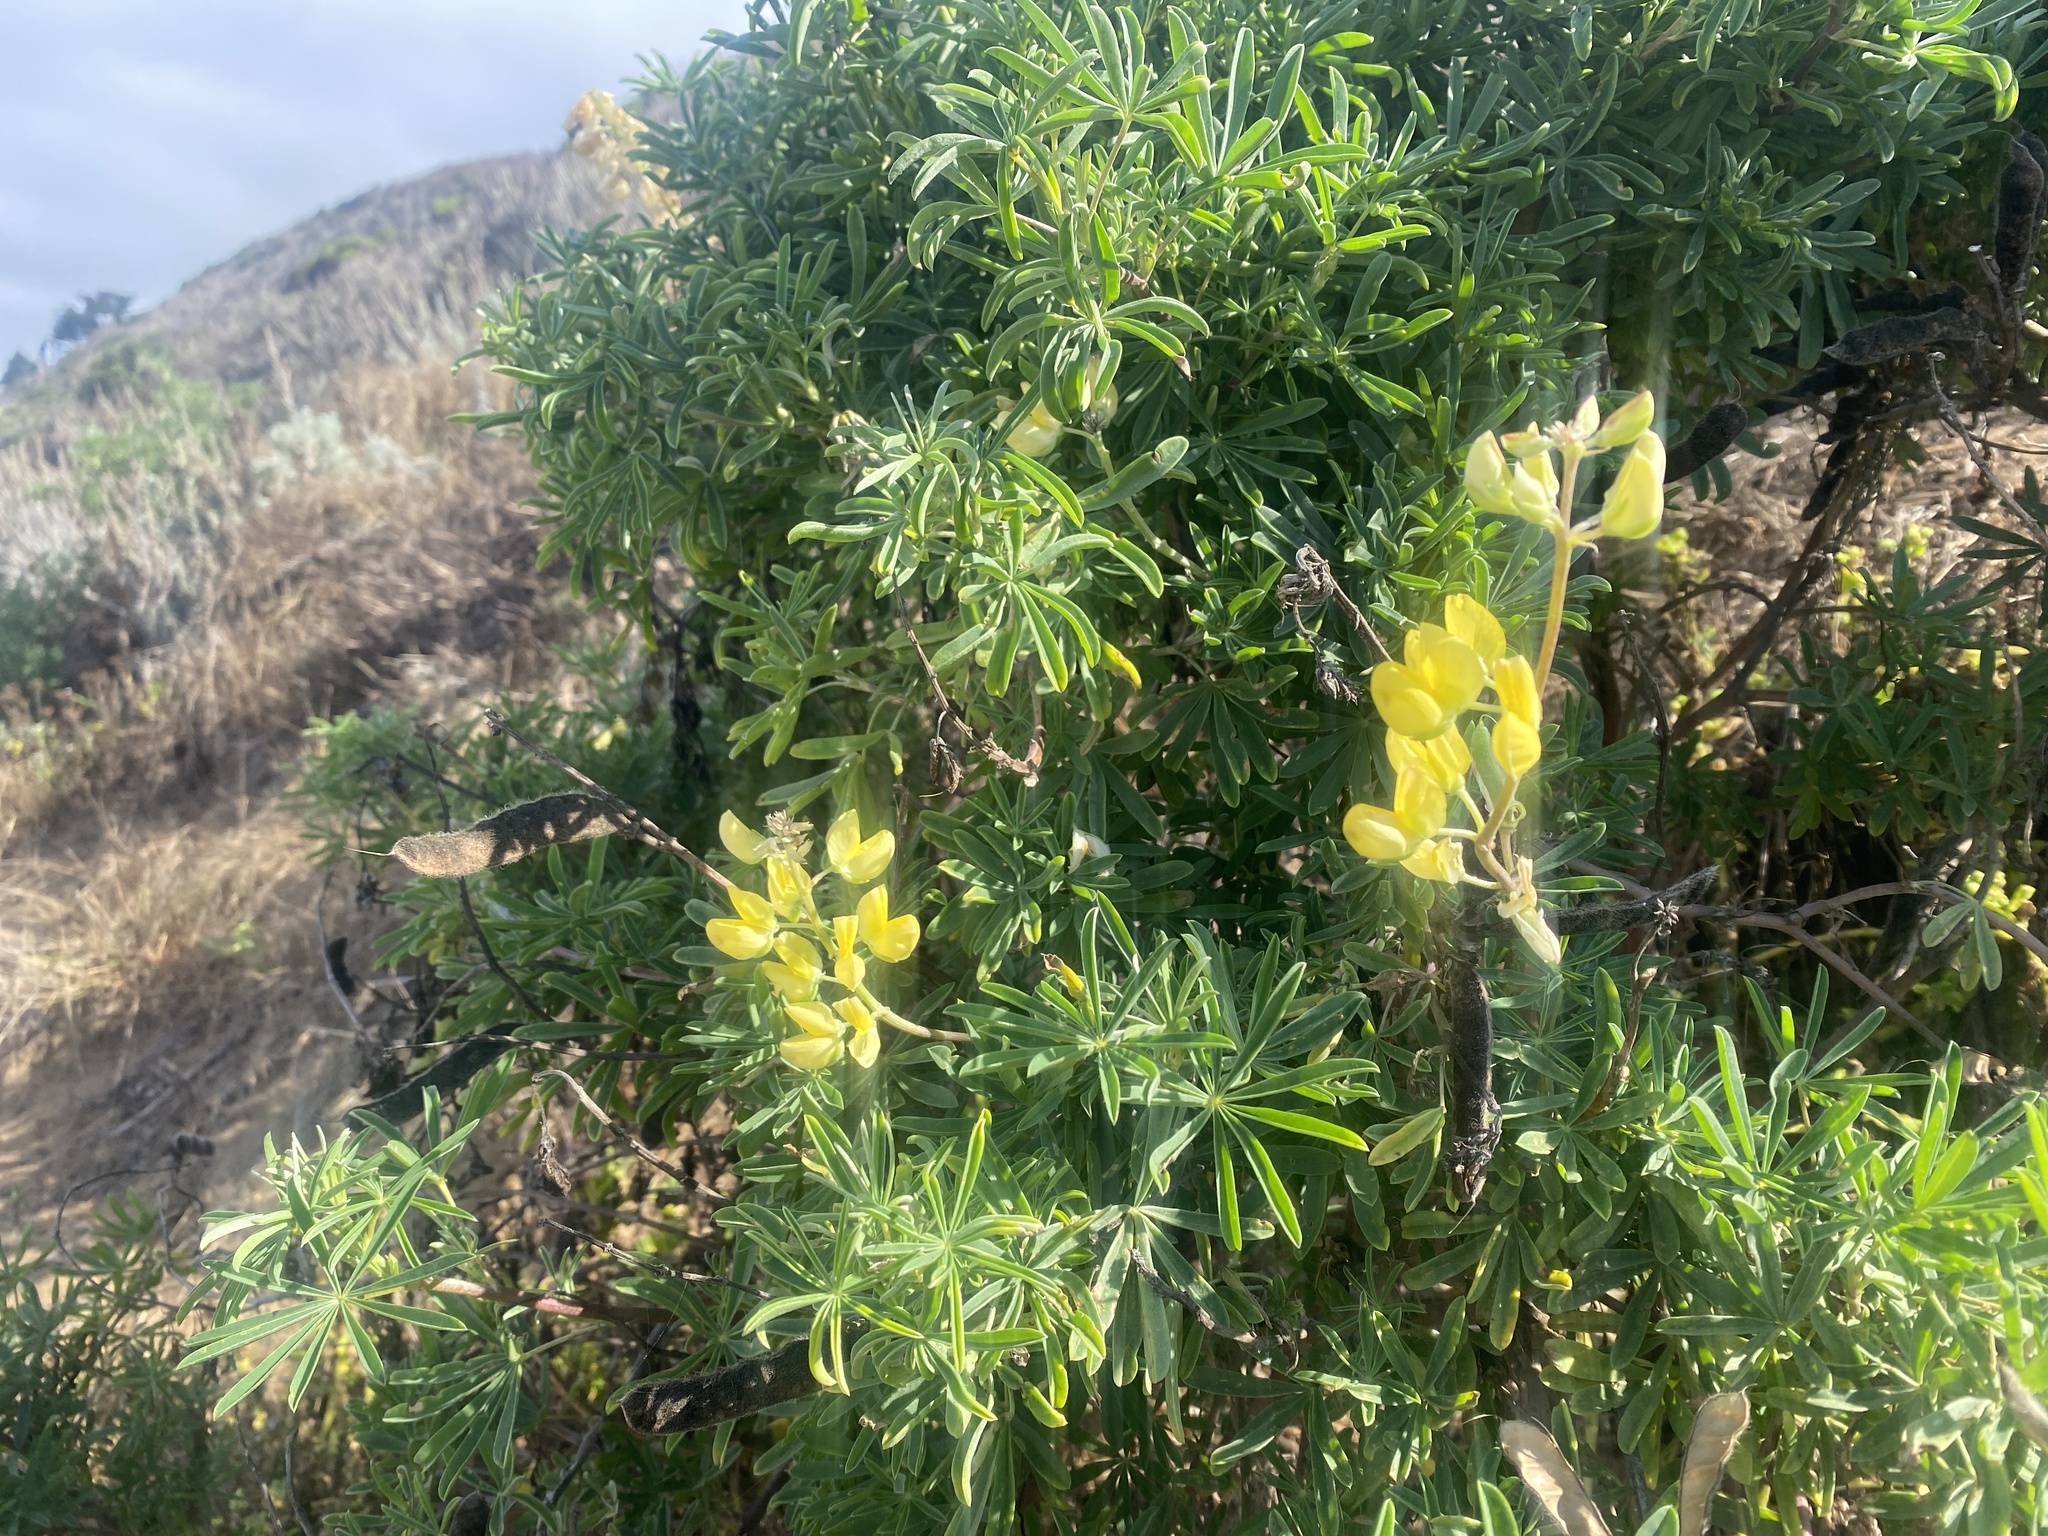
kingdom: Plantae
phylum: Tracheophyta
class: Magnoliopsida
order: Fabales
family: Fabaceae
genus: Lupinus
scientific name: Lupinus arboreus
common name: Yellow bush lupine
